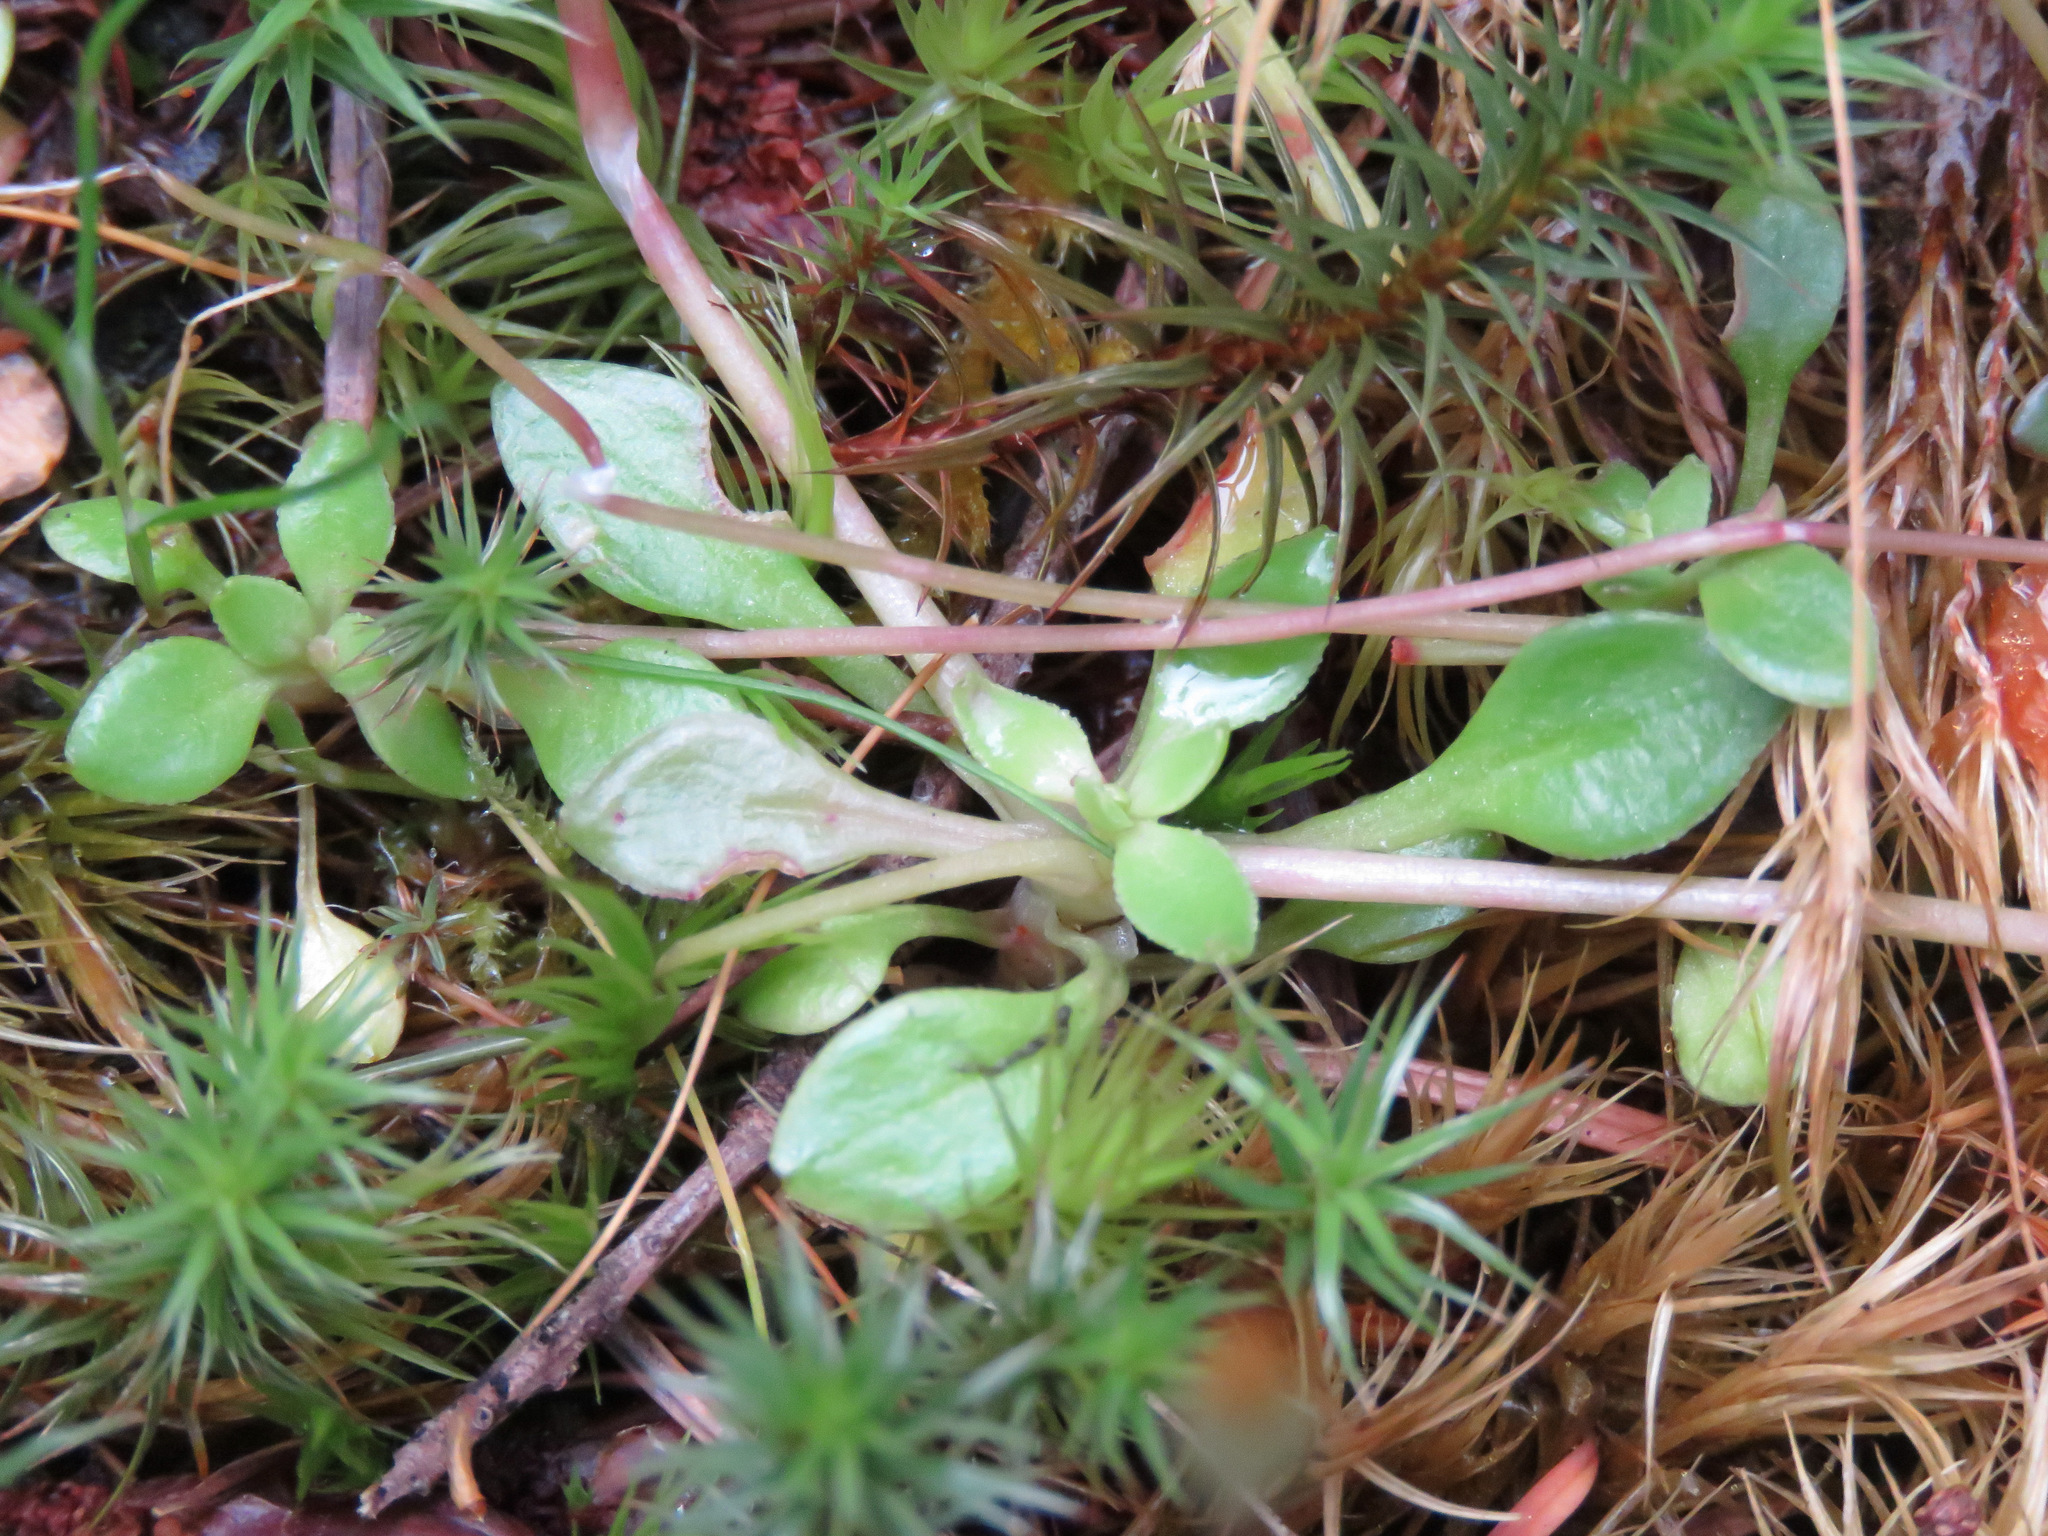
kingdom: Plantae
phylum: Tracheophyta
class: Magnoliopsida
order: Caryophyllales
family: Montiaceae
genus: Montia
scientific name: Montia parvifolia
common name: Small-leaved blinks
